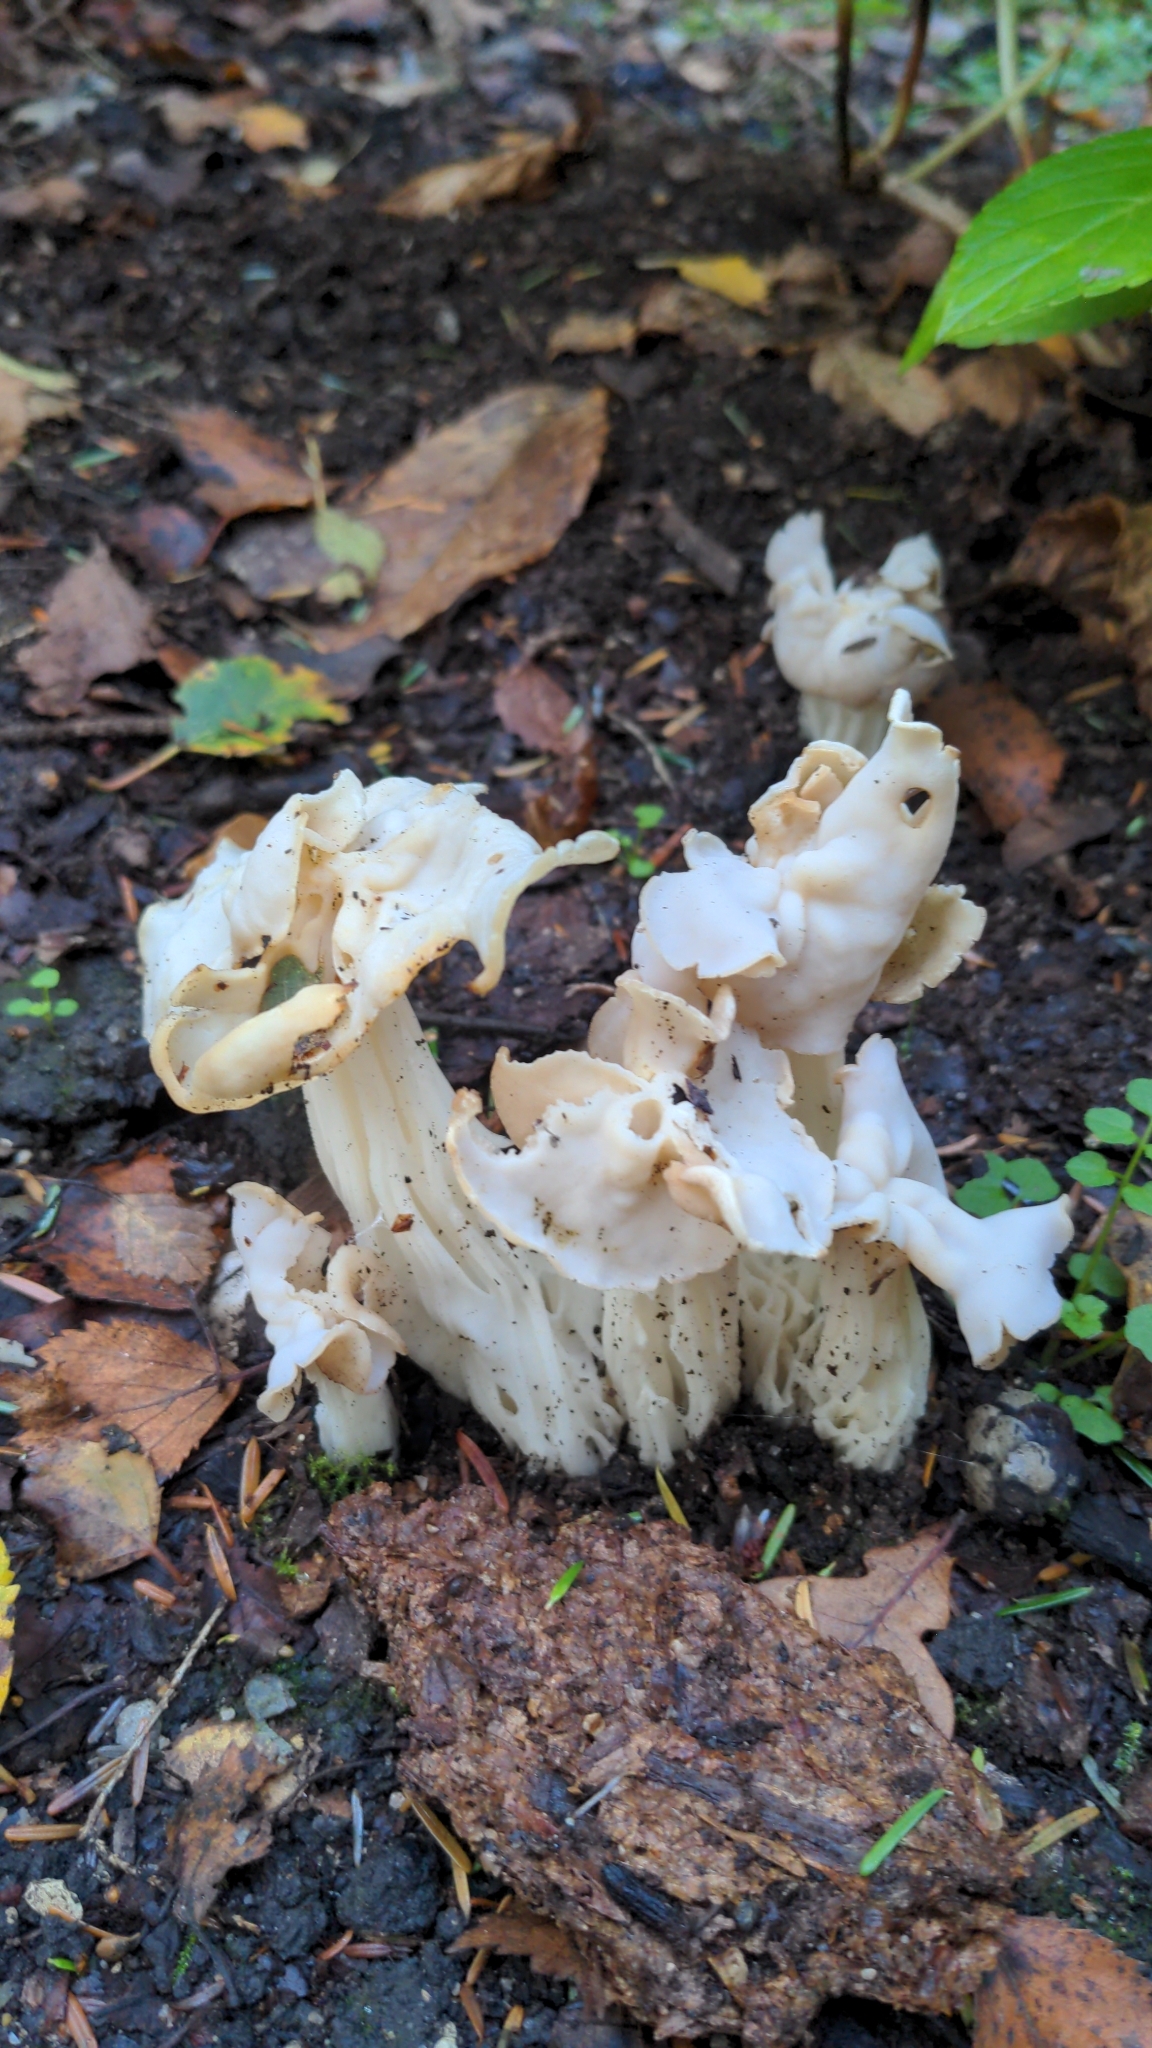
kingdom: Fungi
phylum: Ascomycota
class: Pezizomycetes
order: Pezizales
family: Helvellaceae
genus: Helvella
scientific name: Helvella crispa
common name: White saddle
